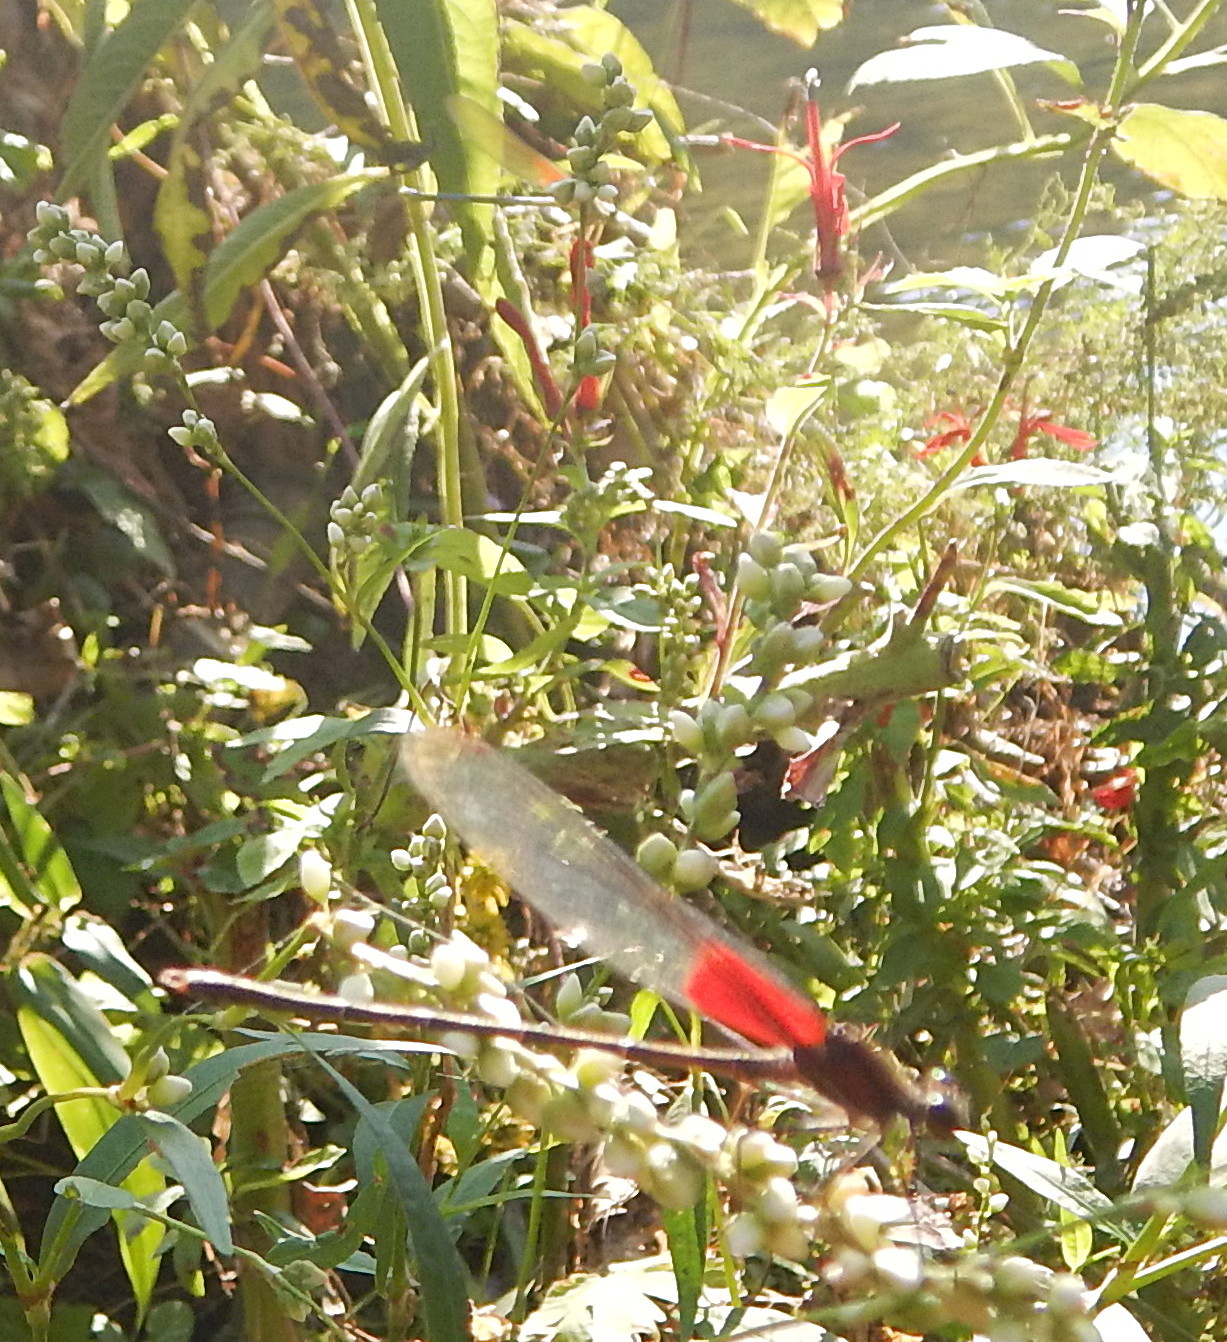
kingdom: Animalia
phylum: Arthropoda
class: Insecta
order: Odonata
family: Calopterygidae
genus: Hetaerina
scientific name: Hetaerina americana
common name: American rubyspot
